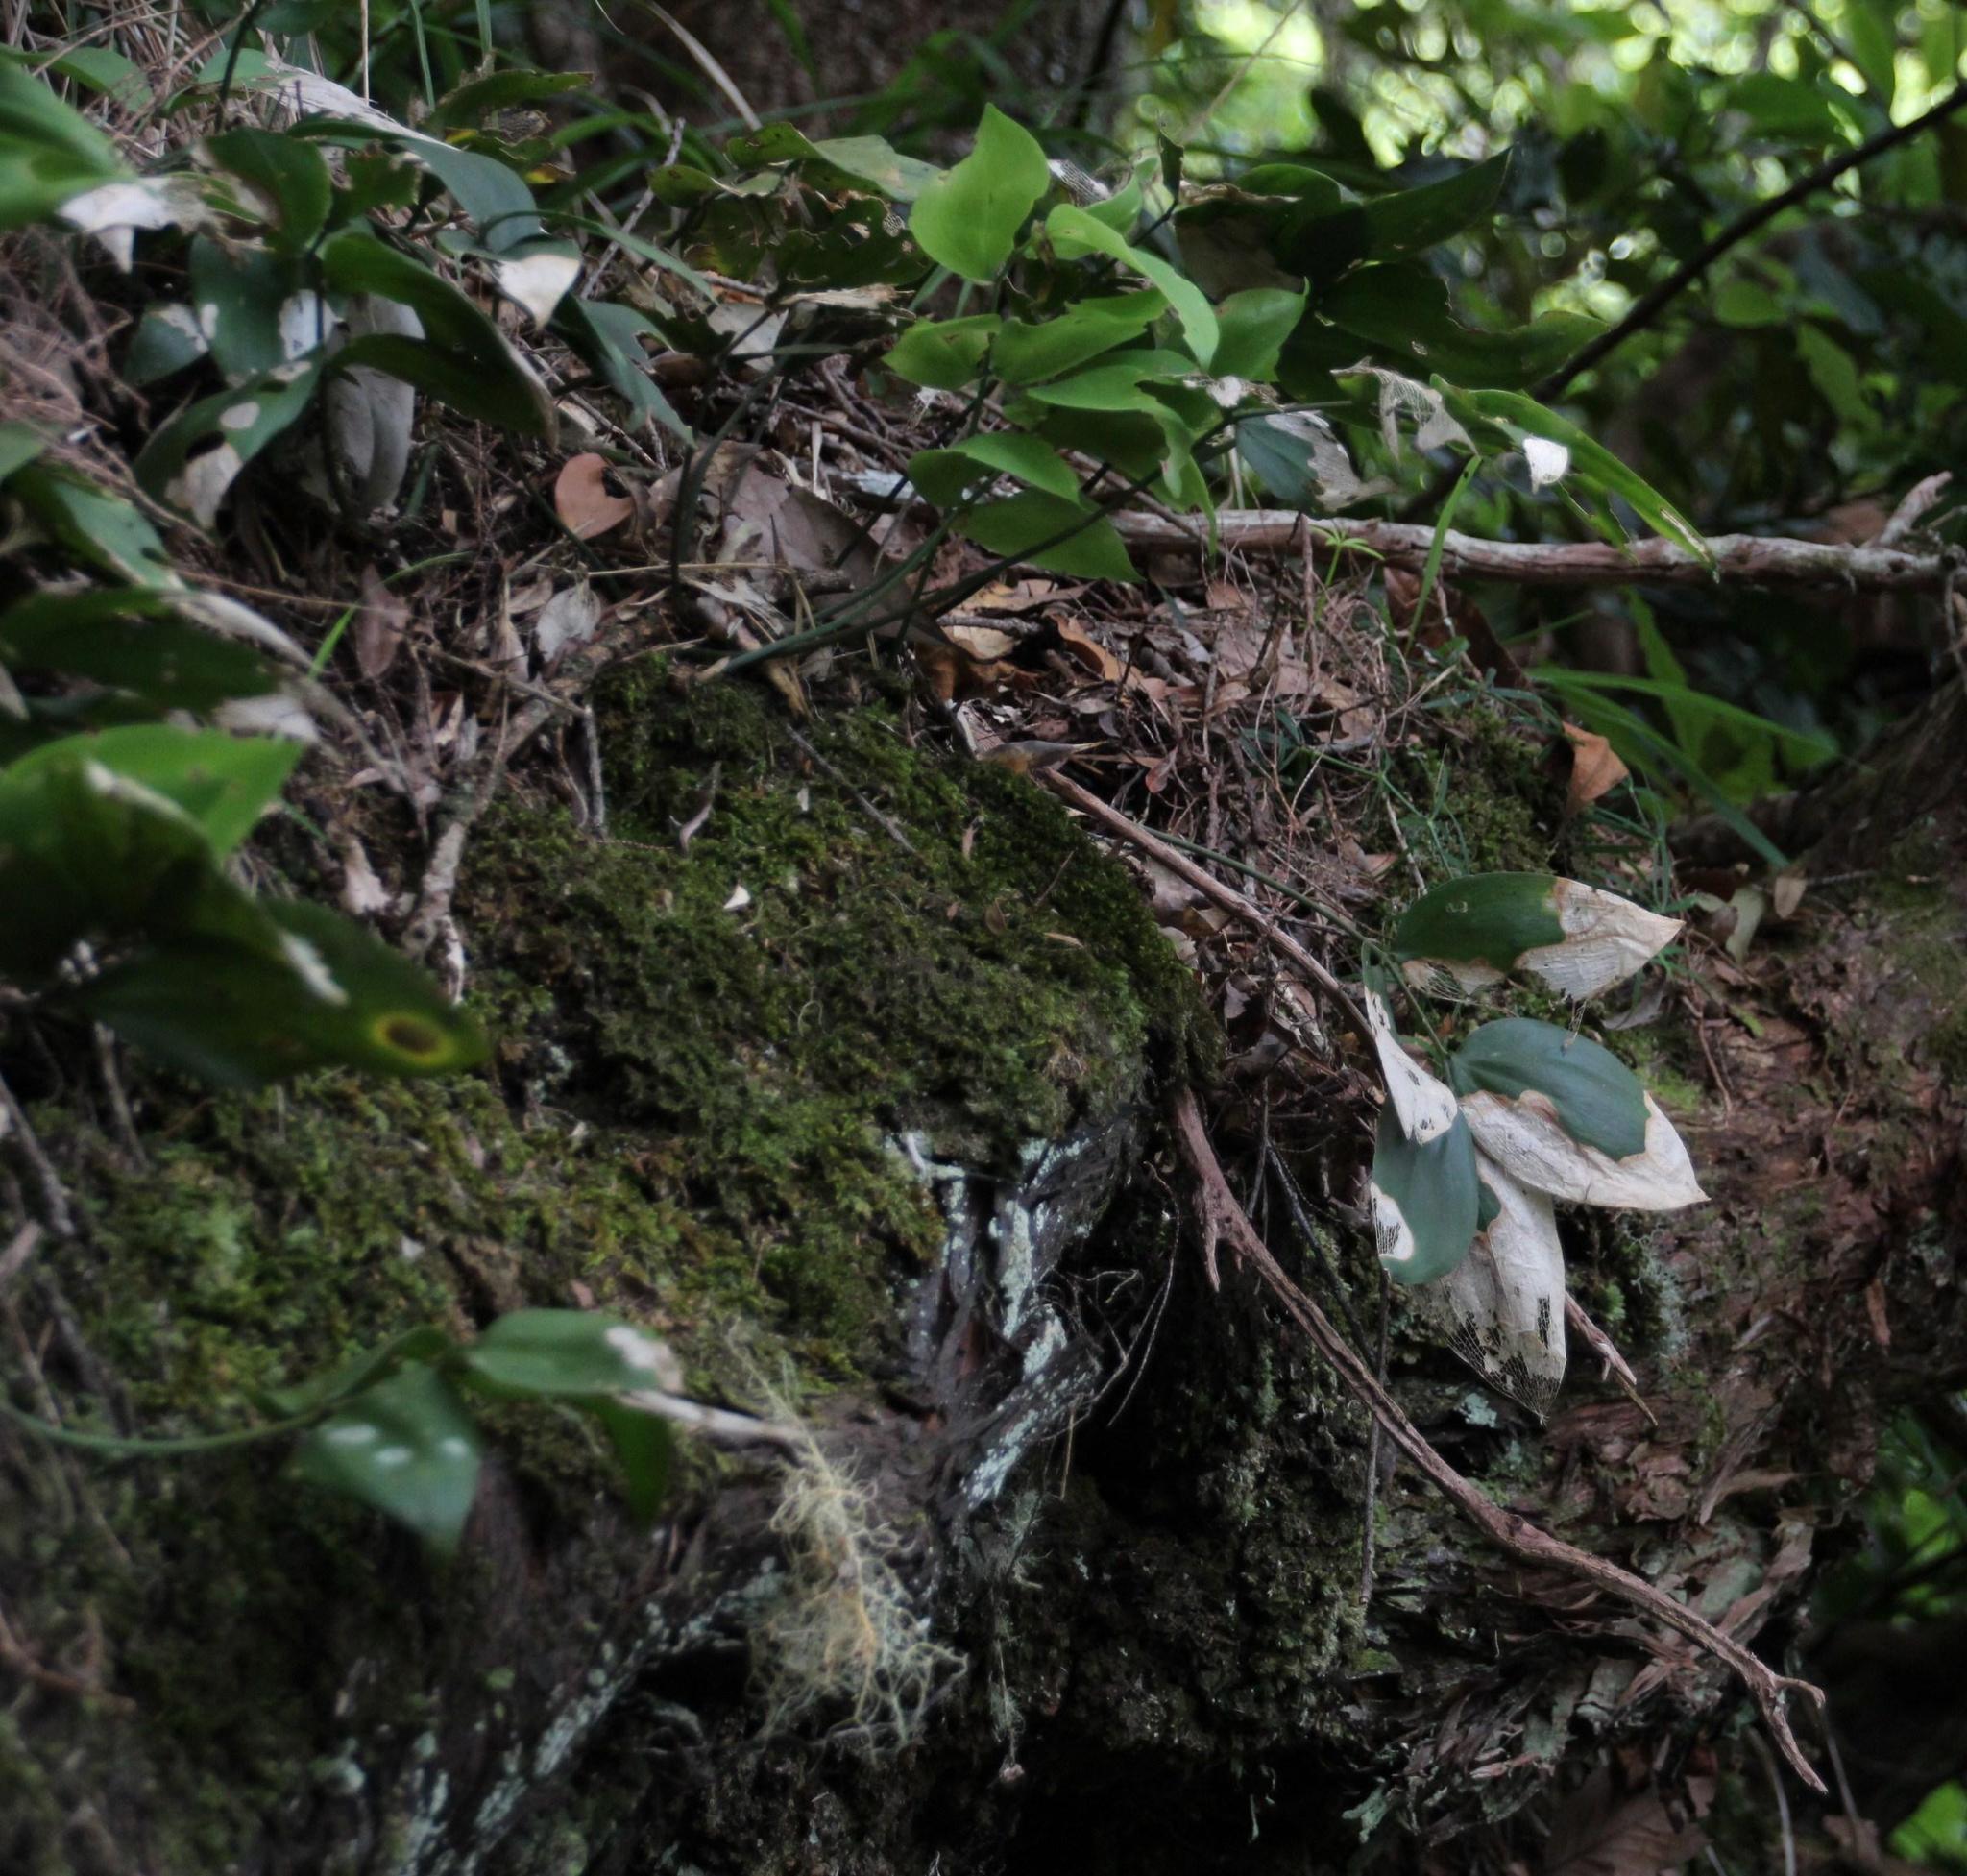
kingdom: Plantae
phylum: Tracheophyta
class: Liliopsida
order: Asparagales
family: Asparagaceae
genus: Ruscus
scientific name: Ruscus streptophyllus
